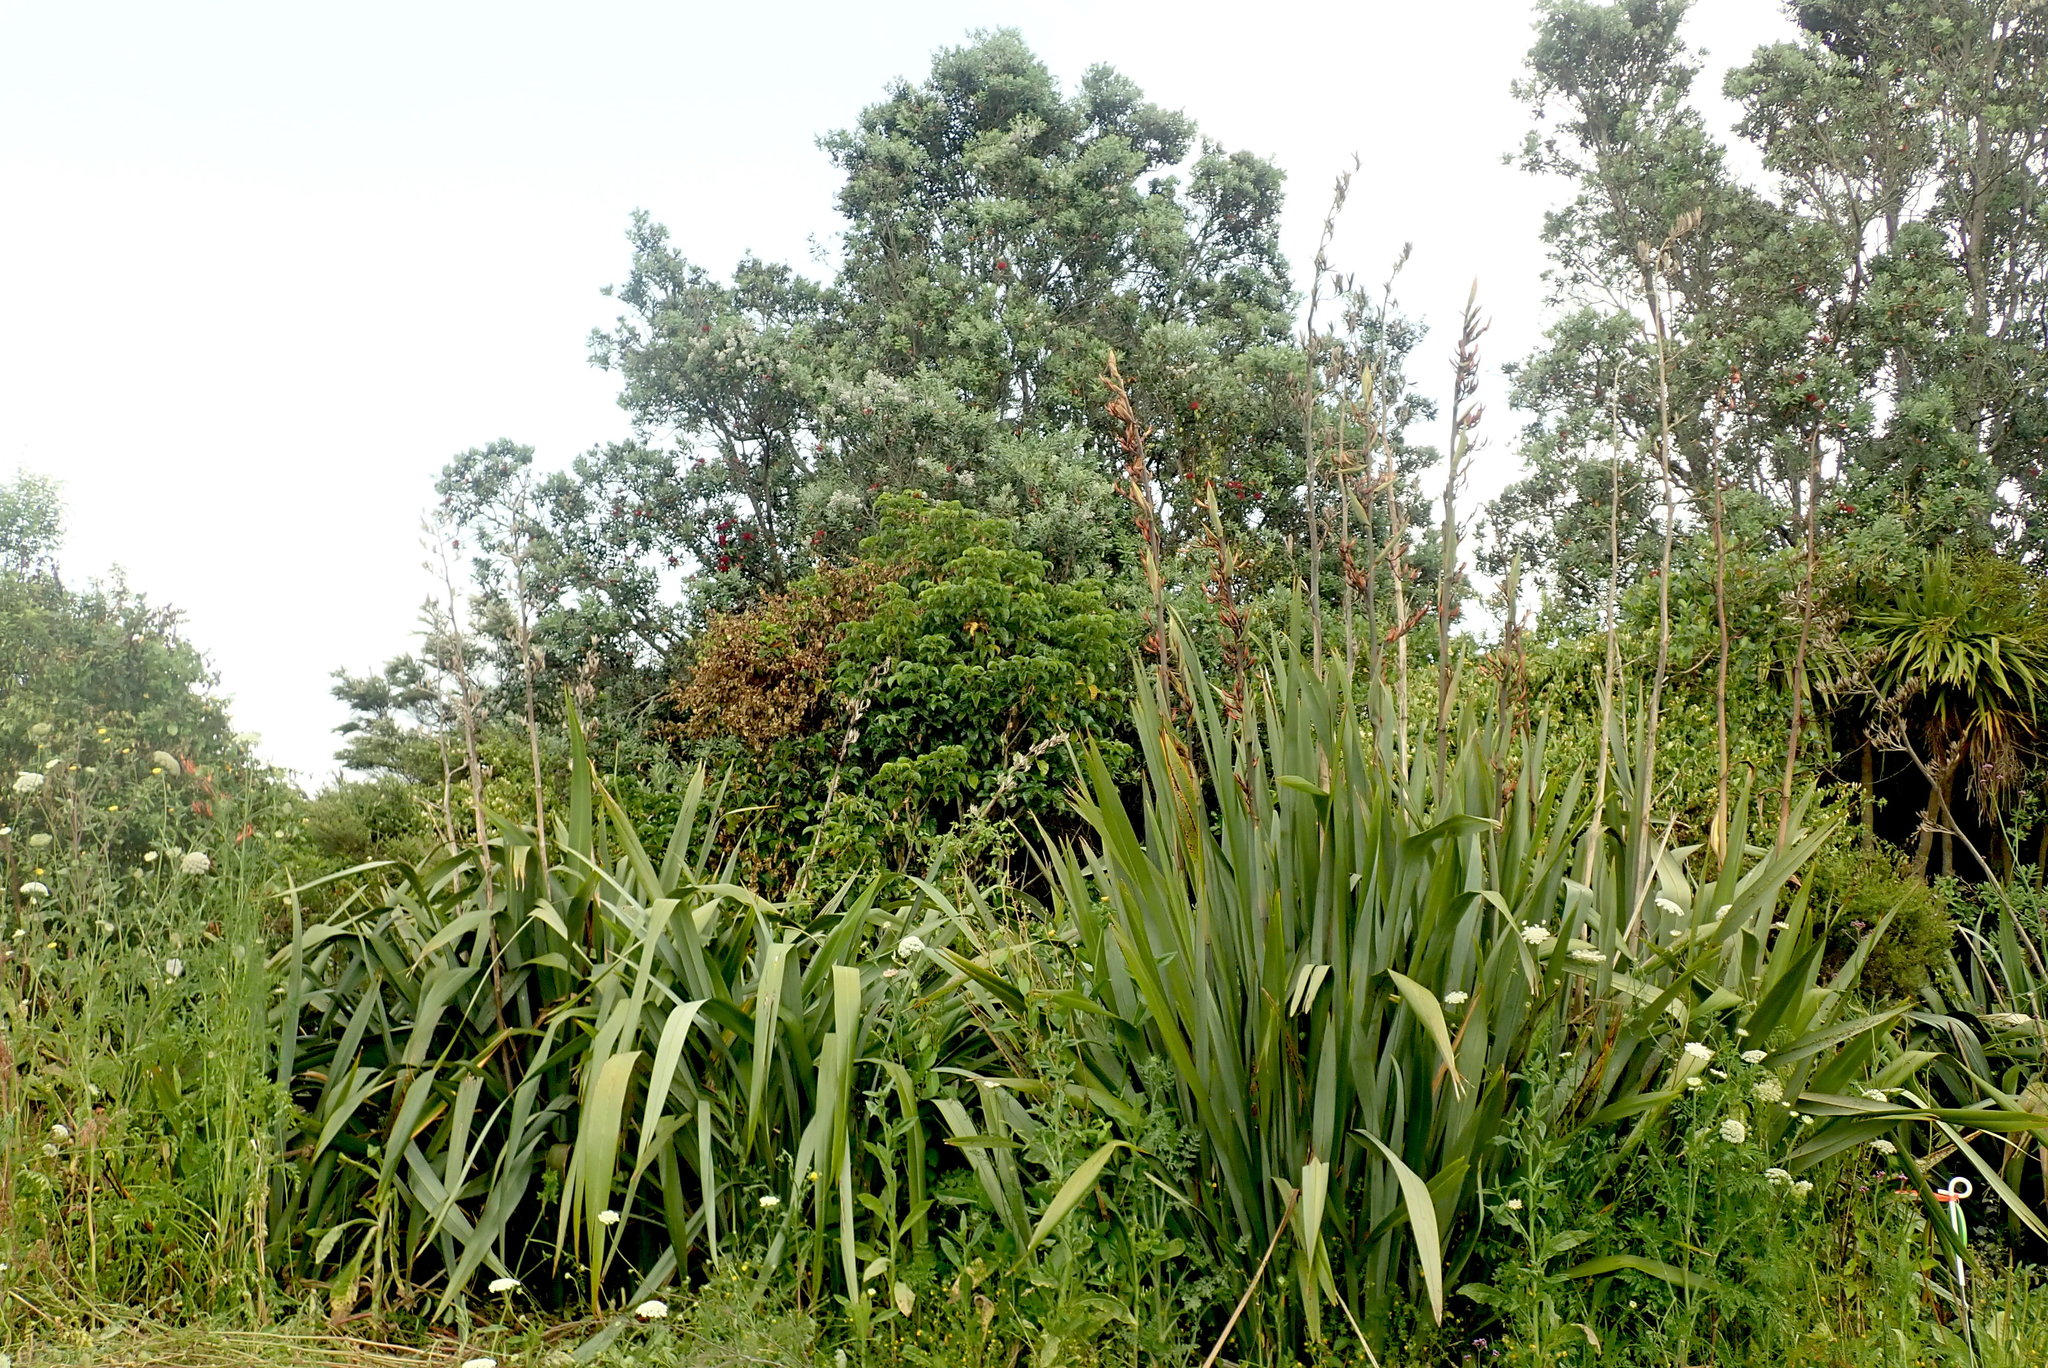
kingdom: Plantae
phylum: Tracheophyta
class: Magnoliopsida
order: Lamiales
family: Lamiaceae
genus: Vitex
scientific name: Vitex lucens
